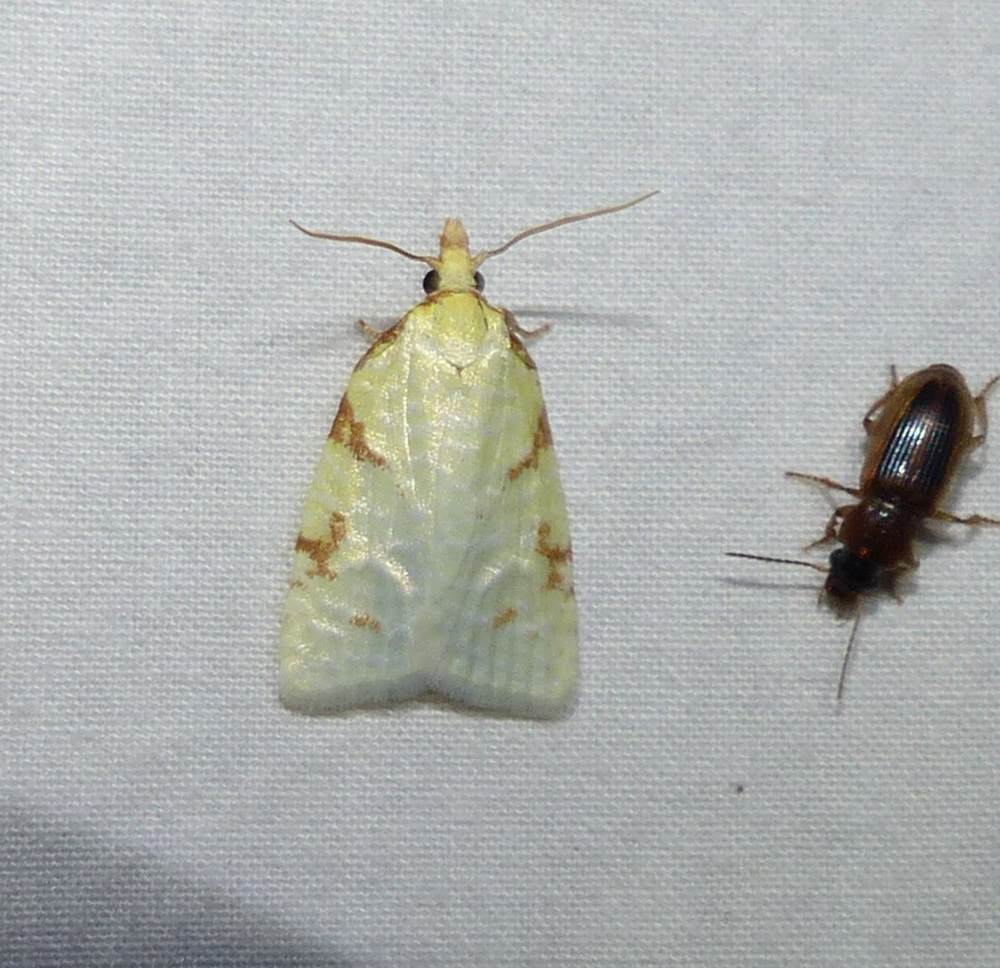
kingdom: Animalia
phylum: Arthropoda
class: Insecta
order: Lepidoptera
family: Tortricidae
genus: Cenopis
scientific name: Cenopis pettitana
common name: Maple-basswood leafroller moth
